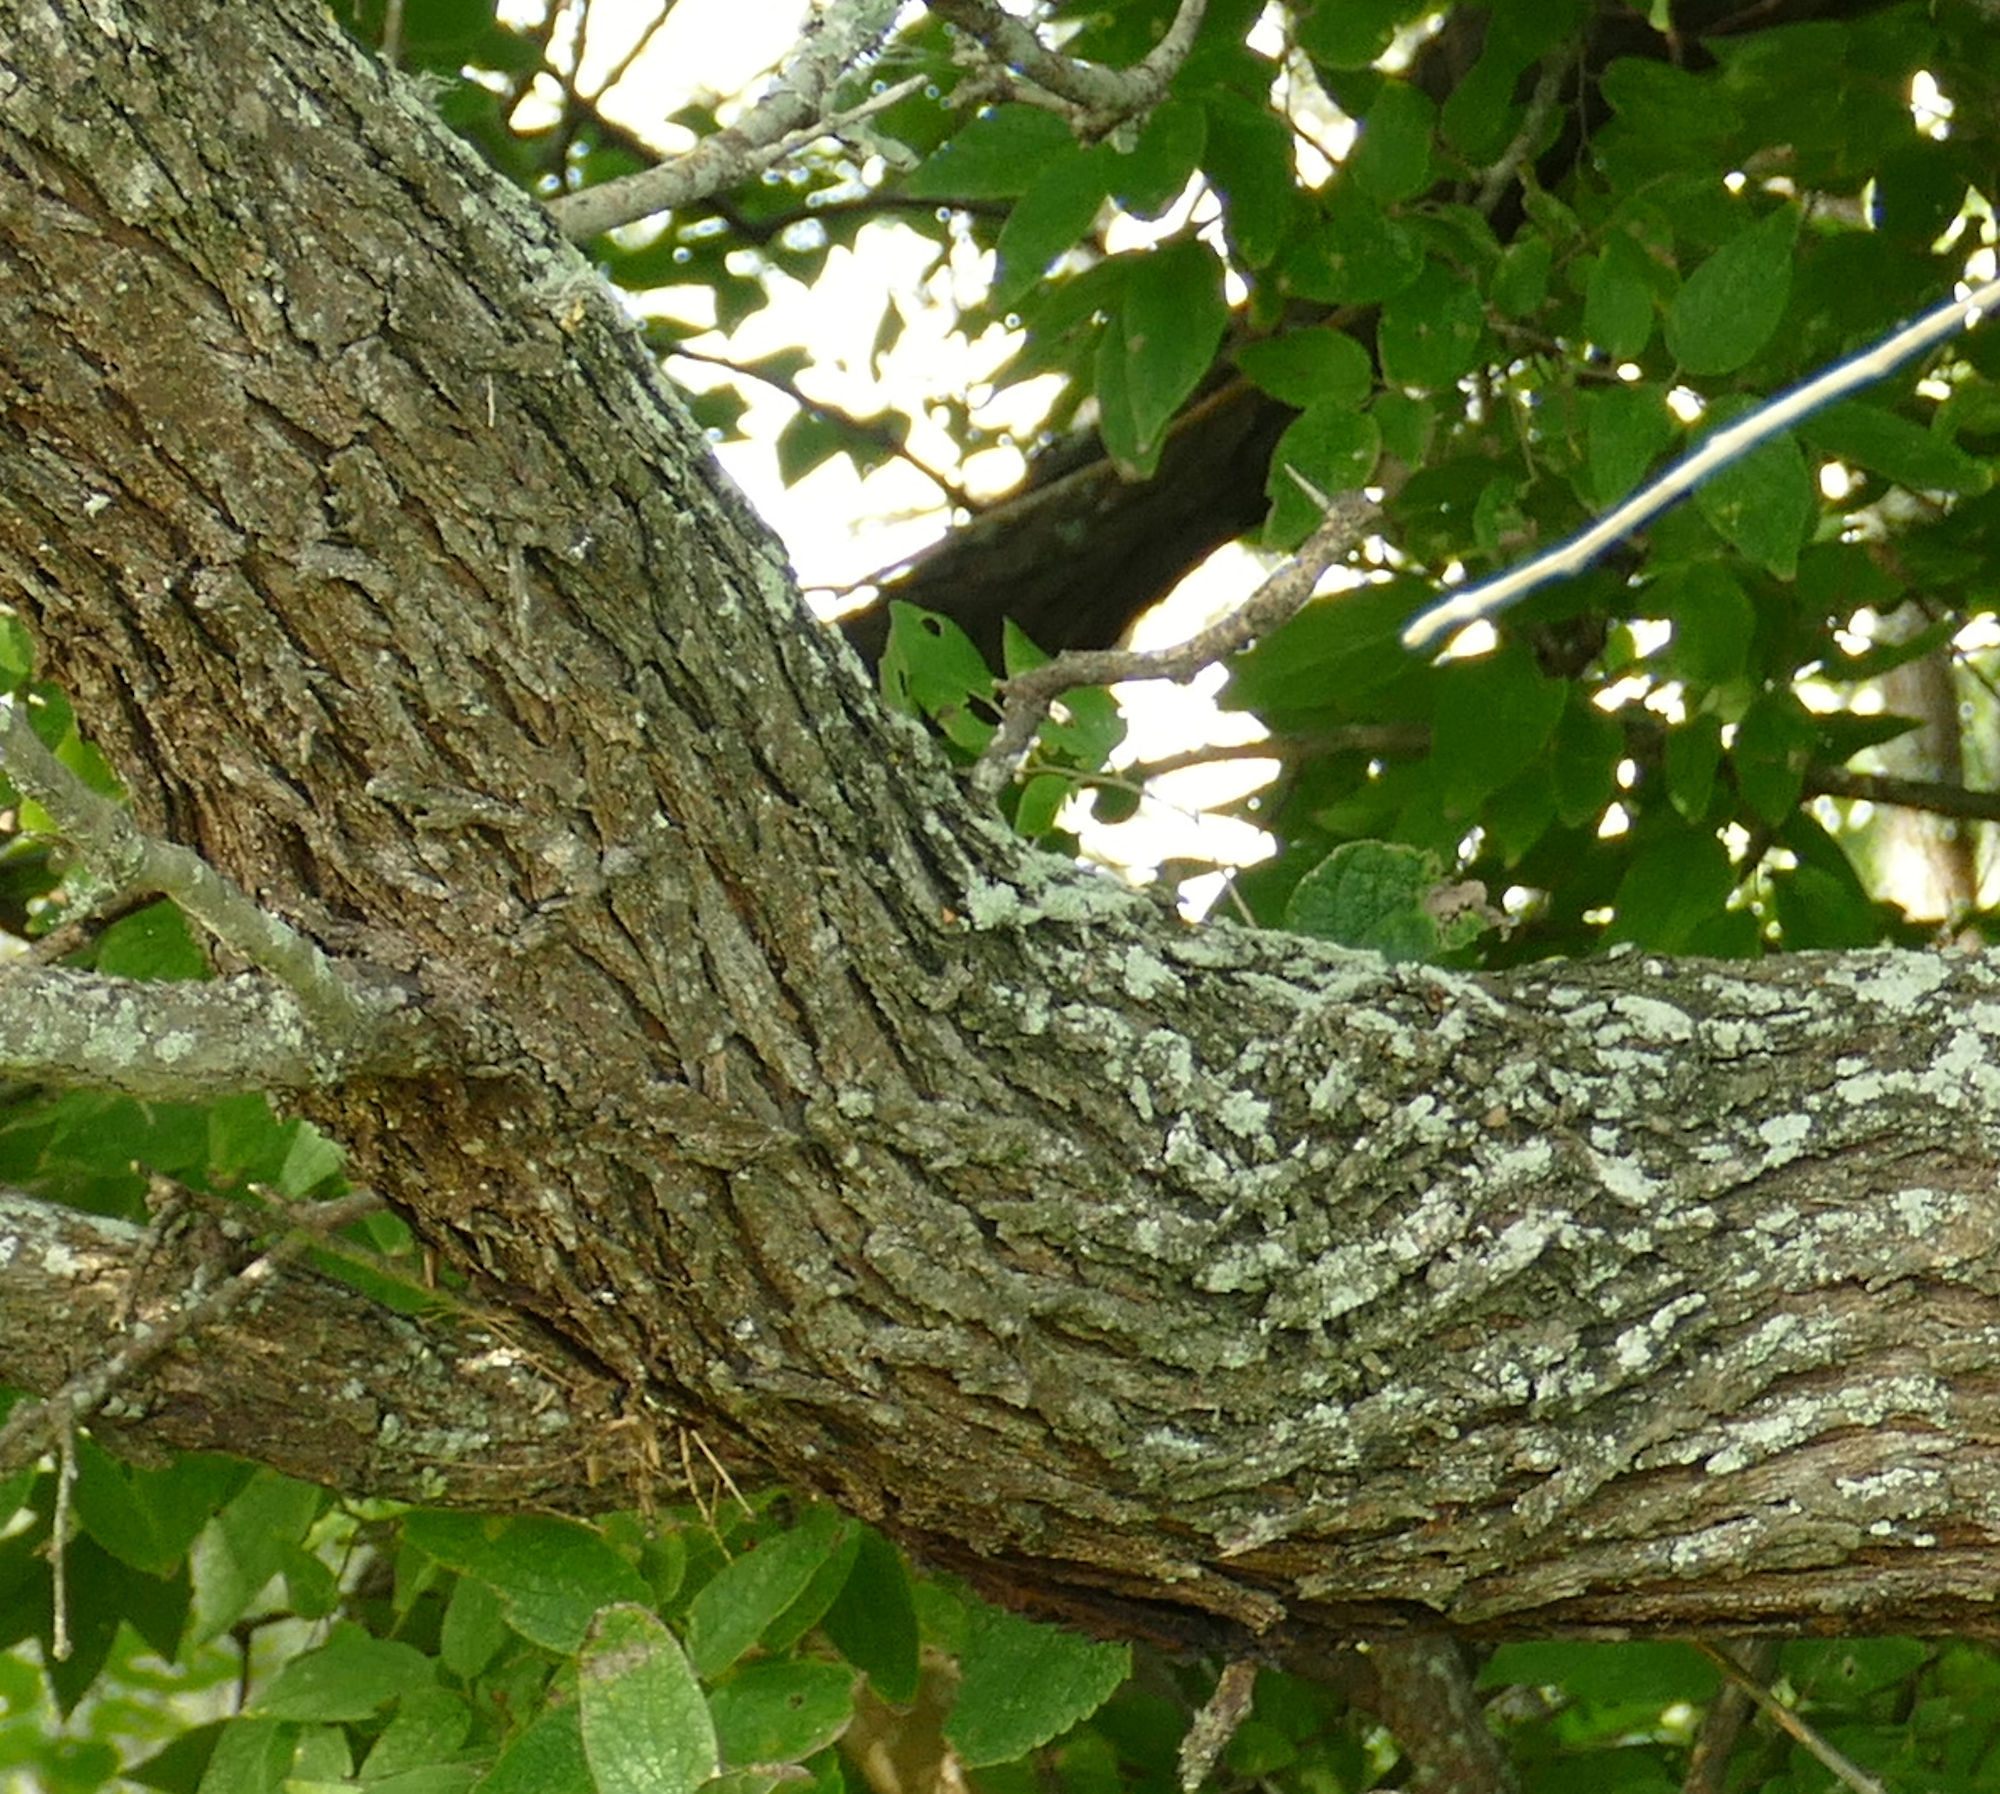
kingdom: Plantae
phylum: Tracheophyta
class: Magnoliopsida
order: Fabales
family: Fabaceae
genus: Prosopis
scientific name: Prosopis glandulosa
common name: Honey mesquite
